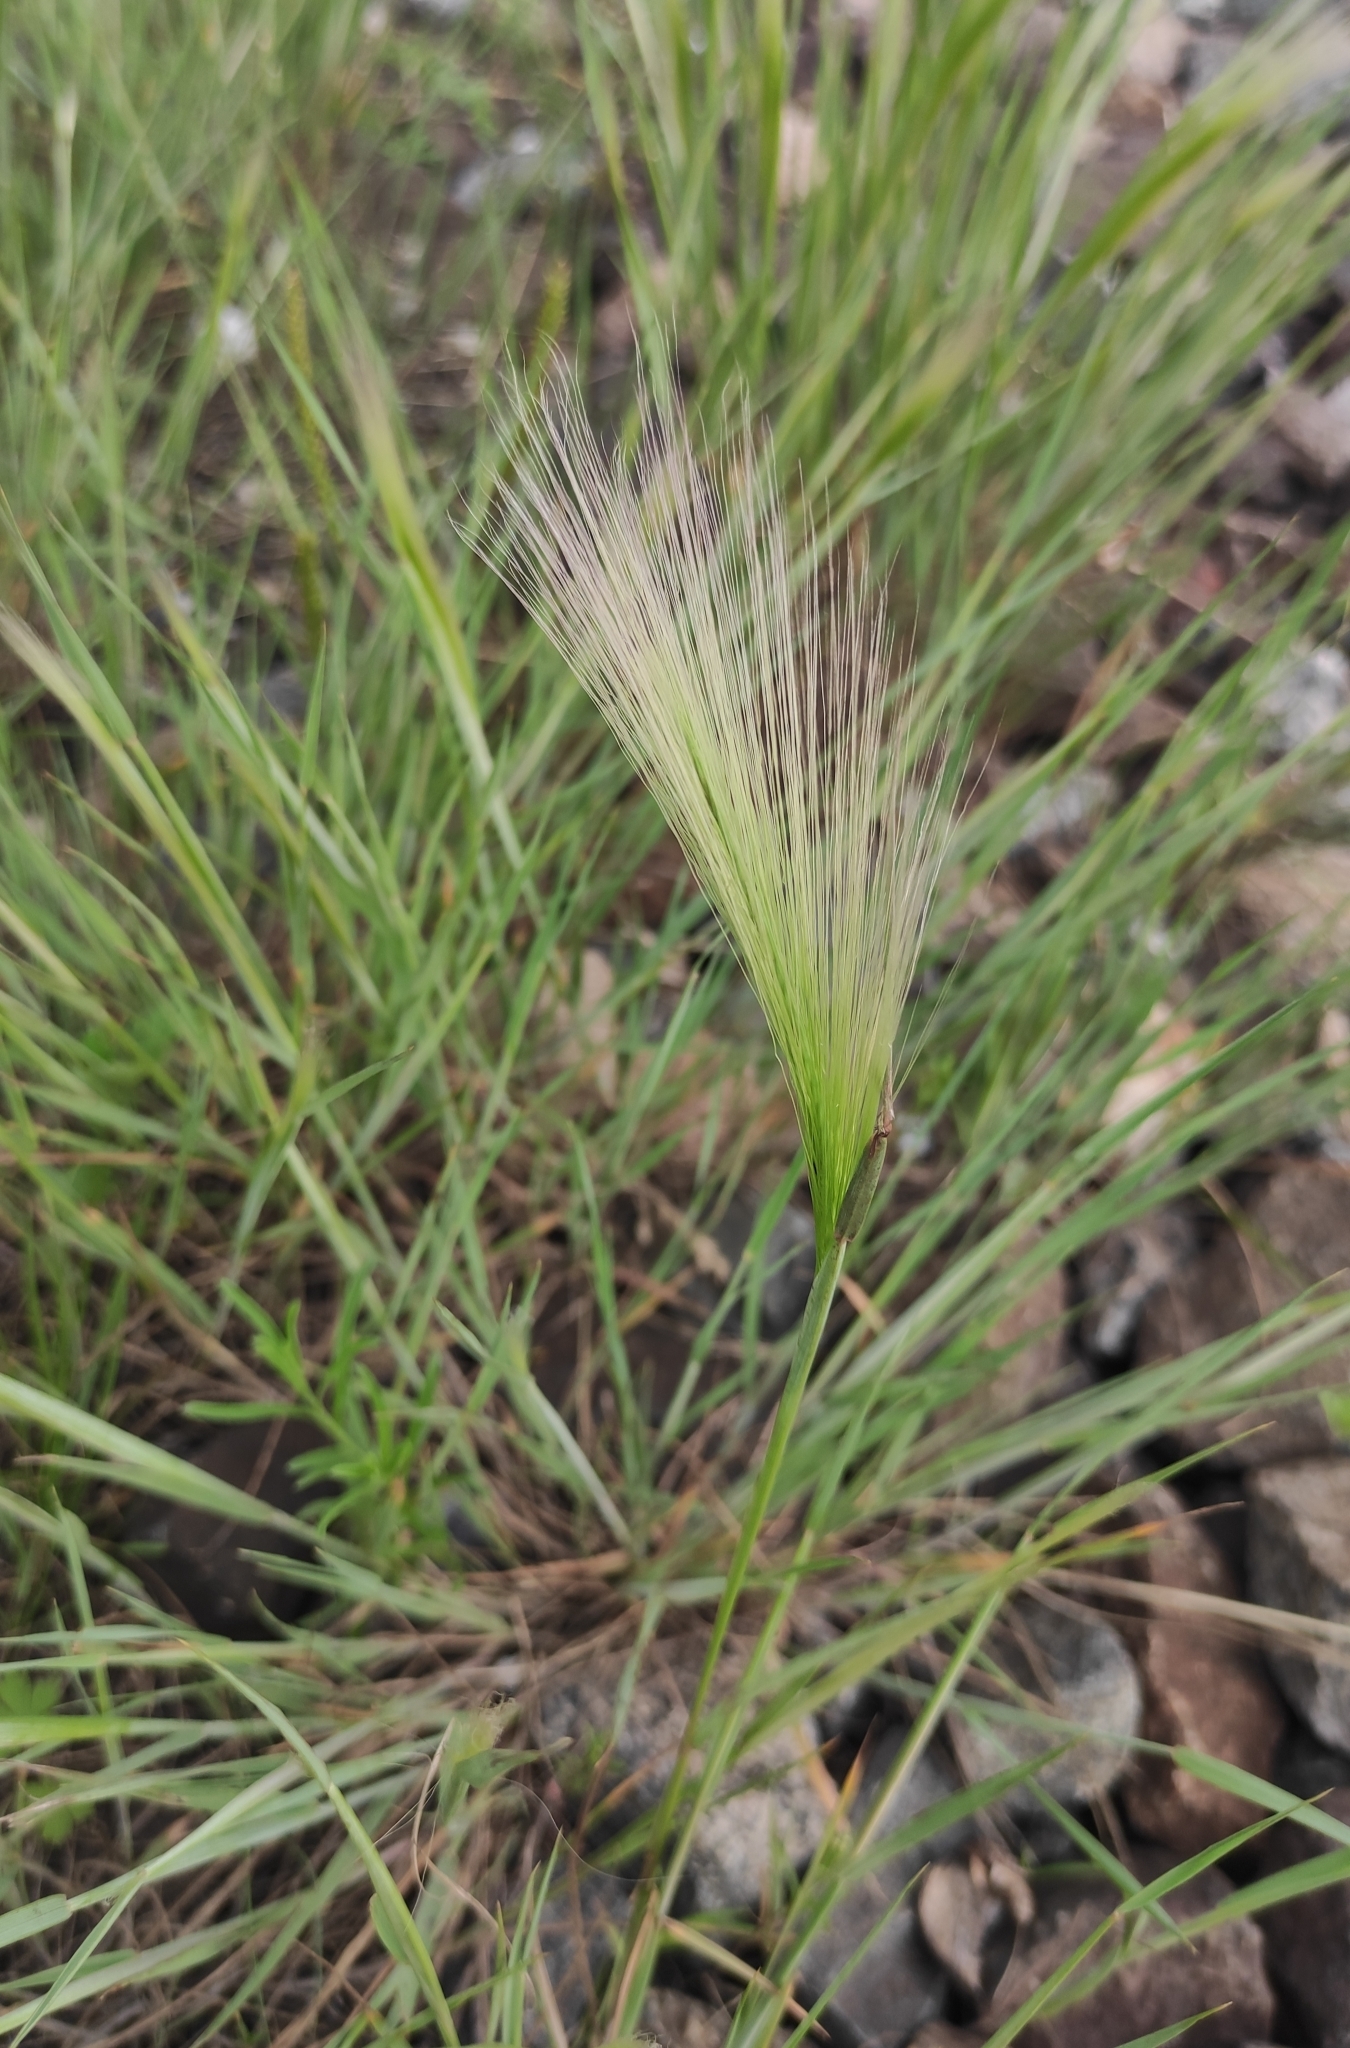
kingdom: Plantae
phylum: Tracheophyta
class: Liliopsida
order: Poales
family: Poaceae
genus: Hordeum
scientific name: Hordeum jubatum
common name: Foxtail barley
